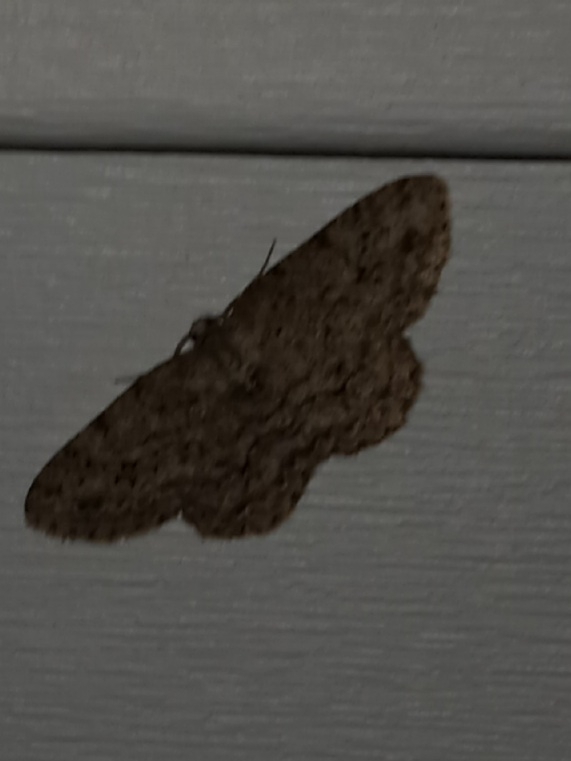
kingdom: Animalia
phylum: Arthropoda
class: Insecta
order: Lepidoptera
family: Geometridae
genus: Ectropis
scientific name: Ectropis crepuscularia
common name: Engrailed
